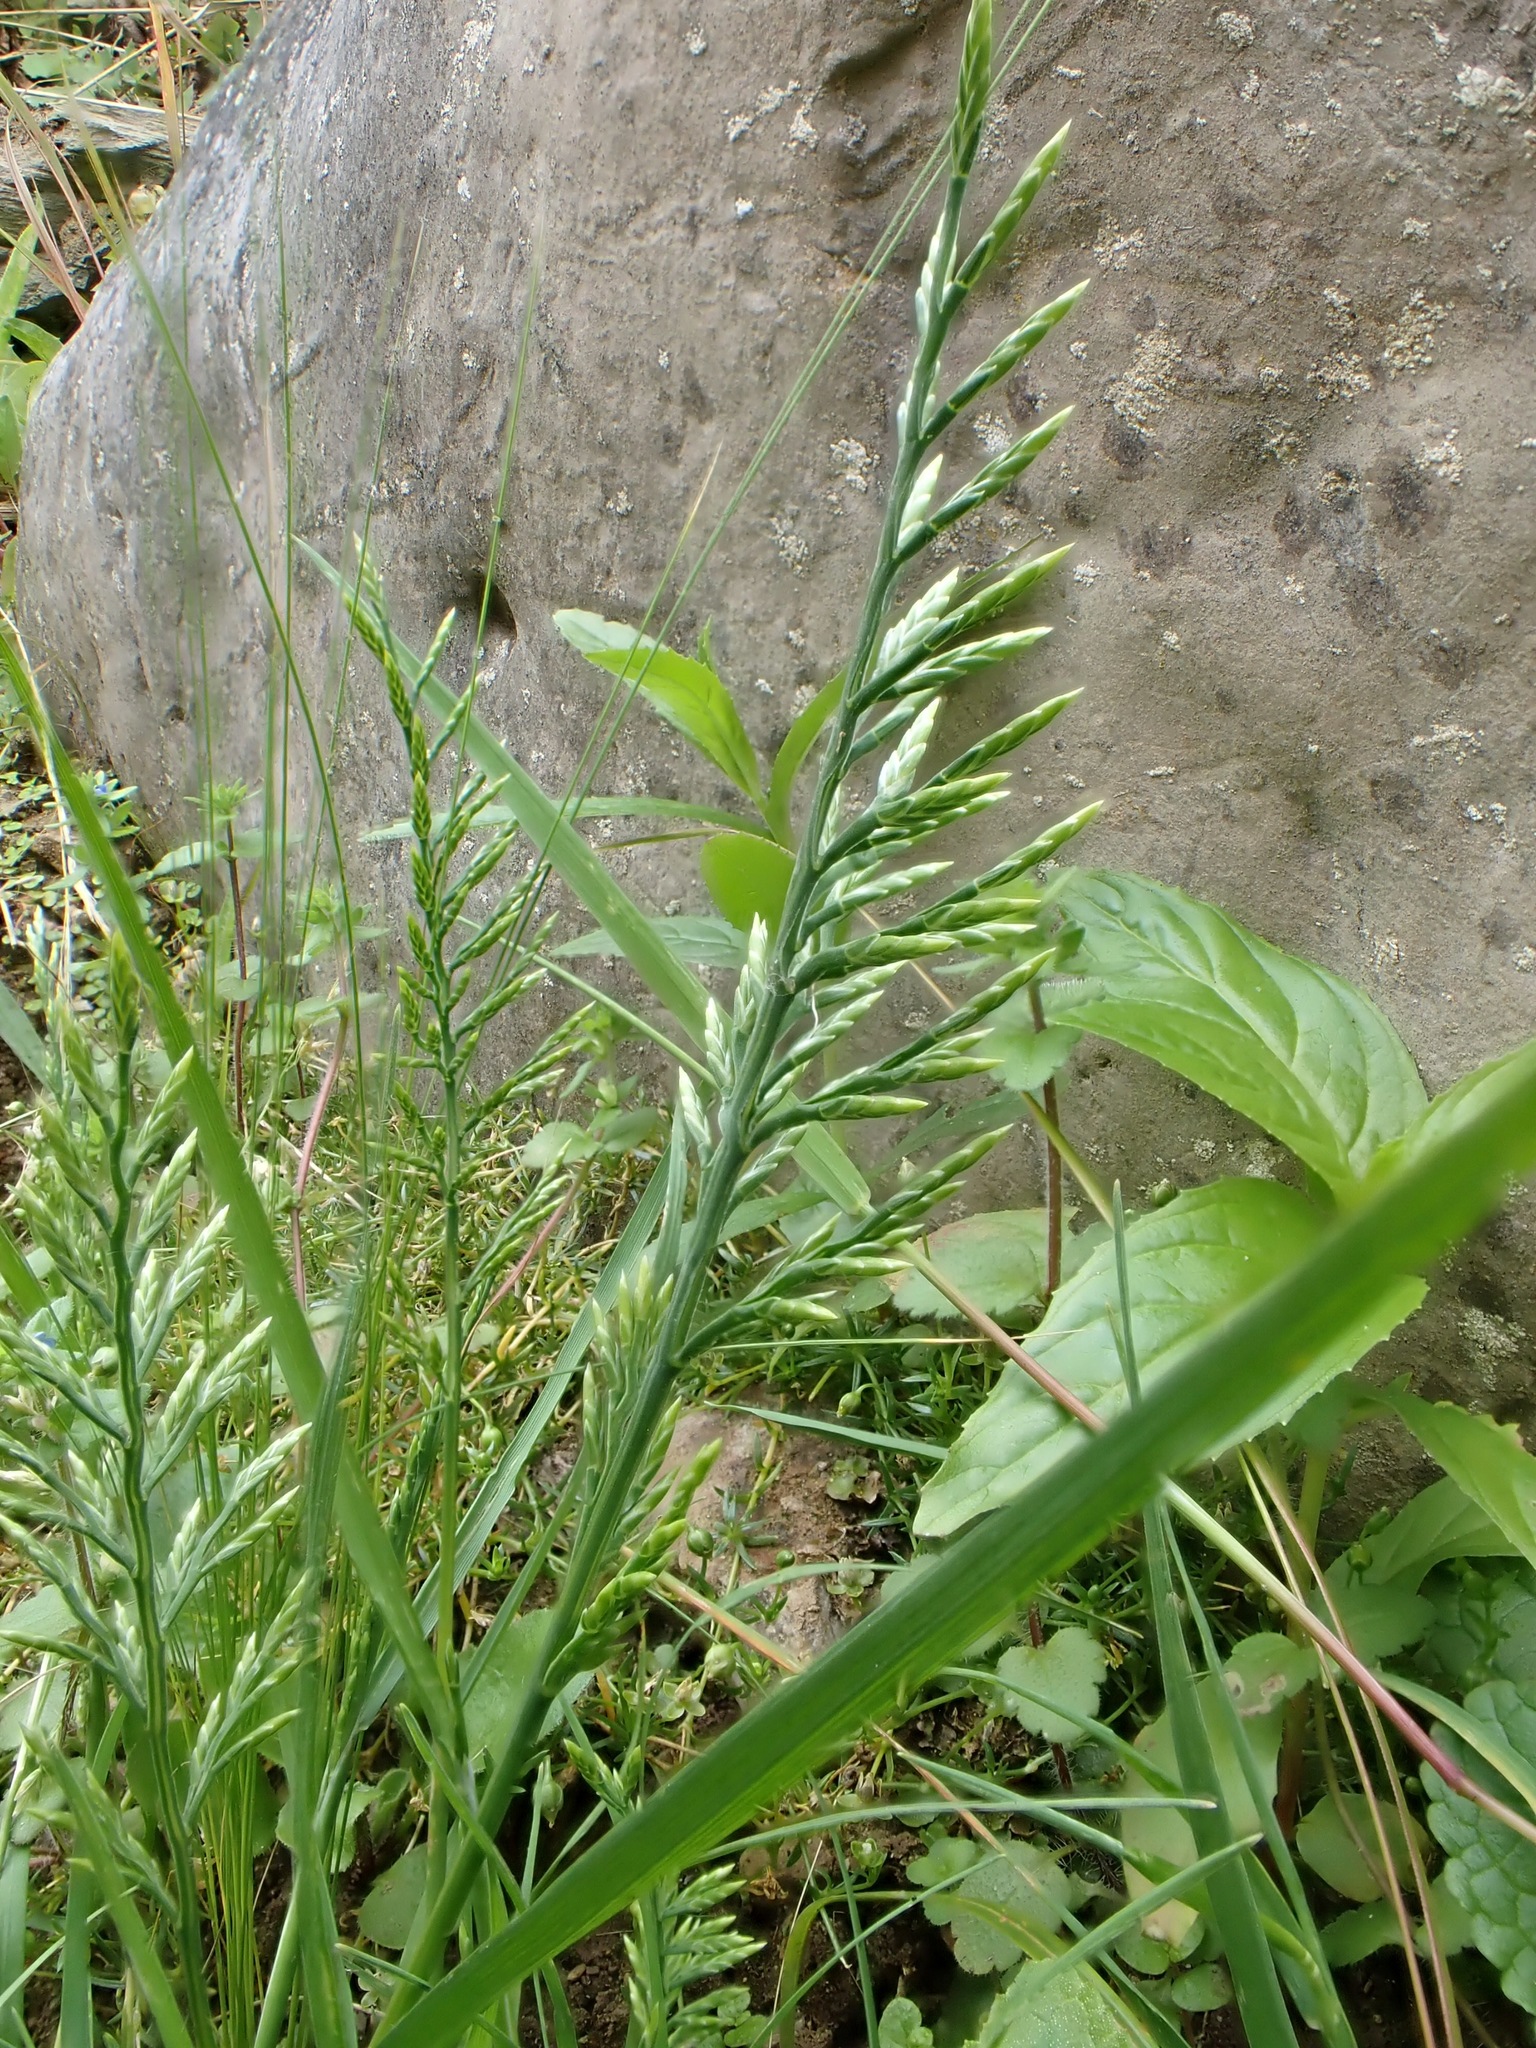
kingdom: Plantae
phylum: Tracheophyta
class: Liliopsida
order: Poales
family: Poaceae
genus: Catapodium
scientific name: Catapodium rigidum
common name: Fern-grass
